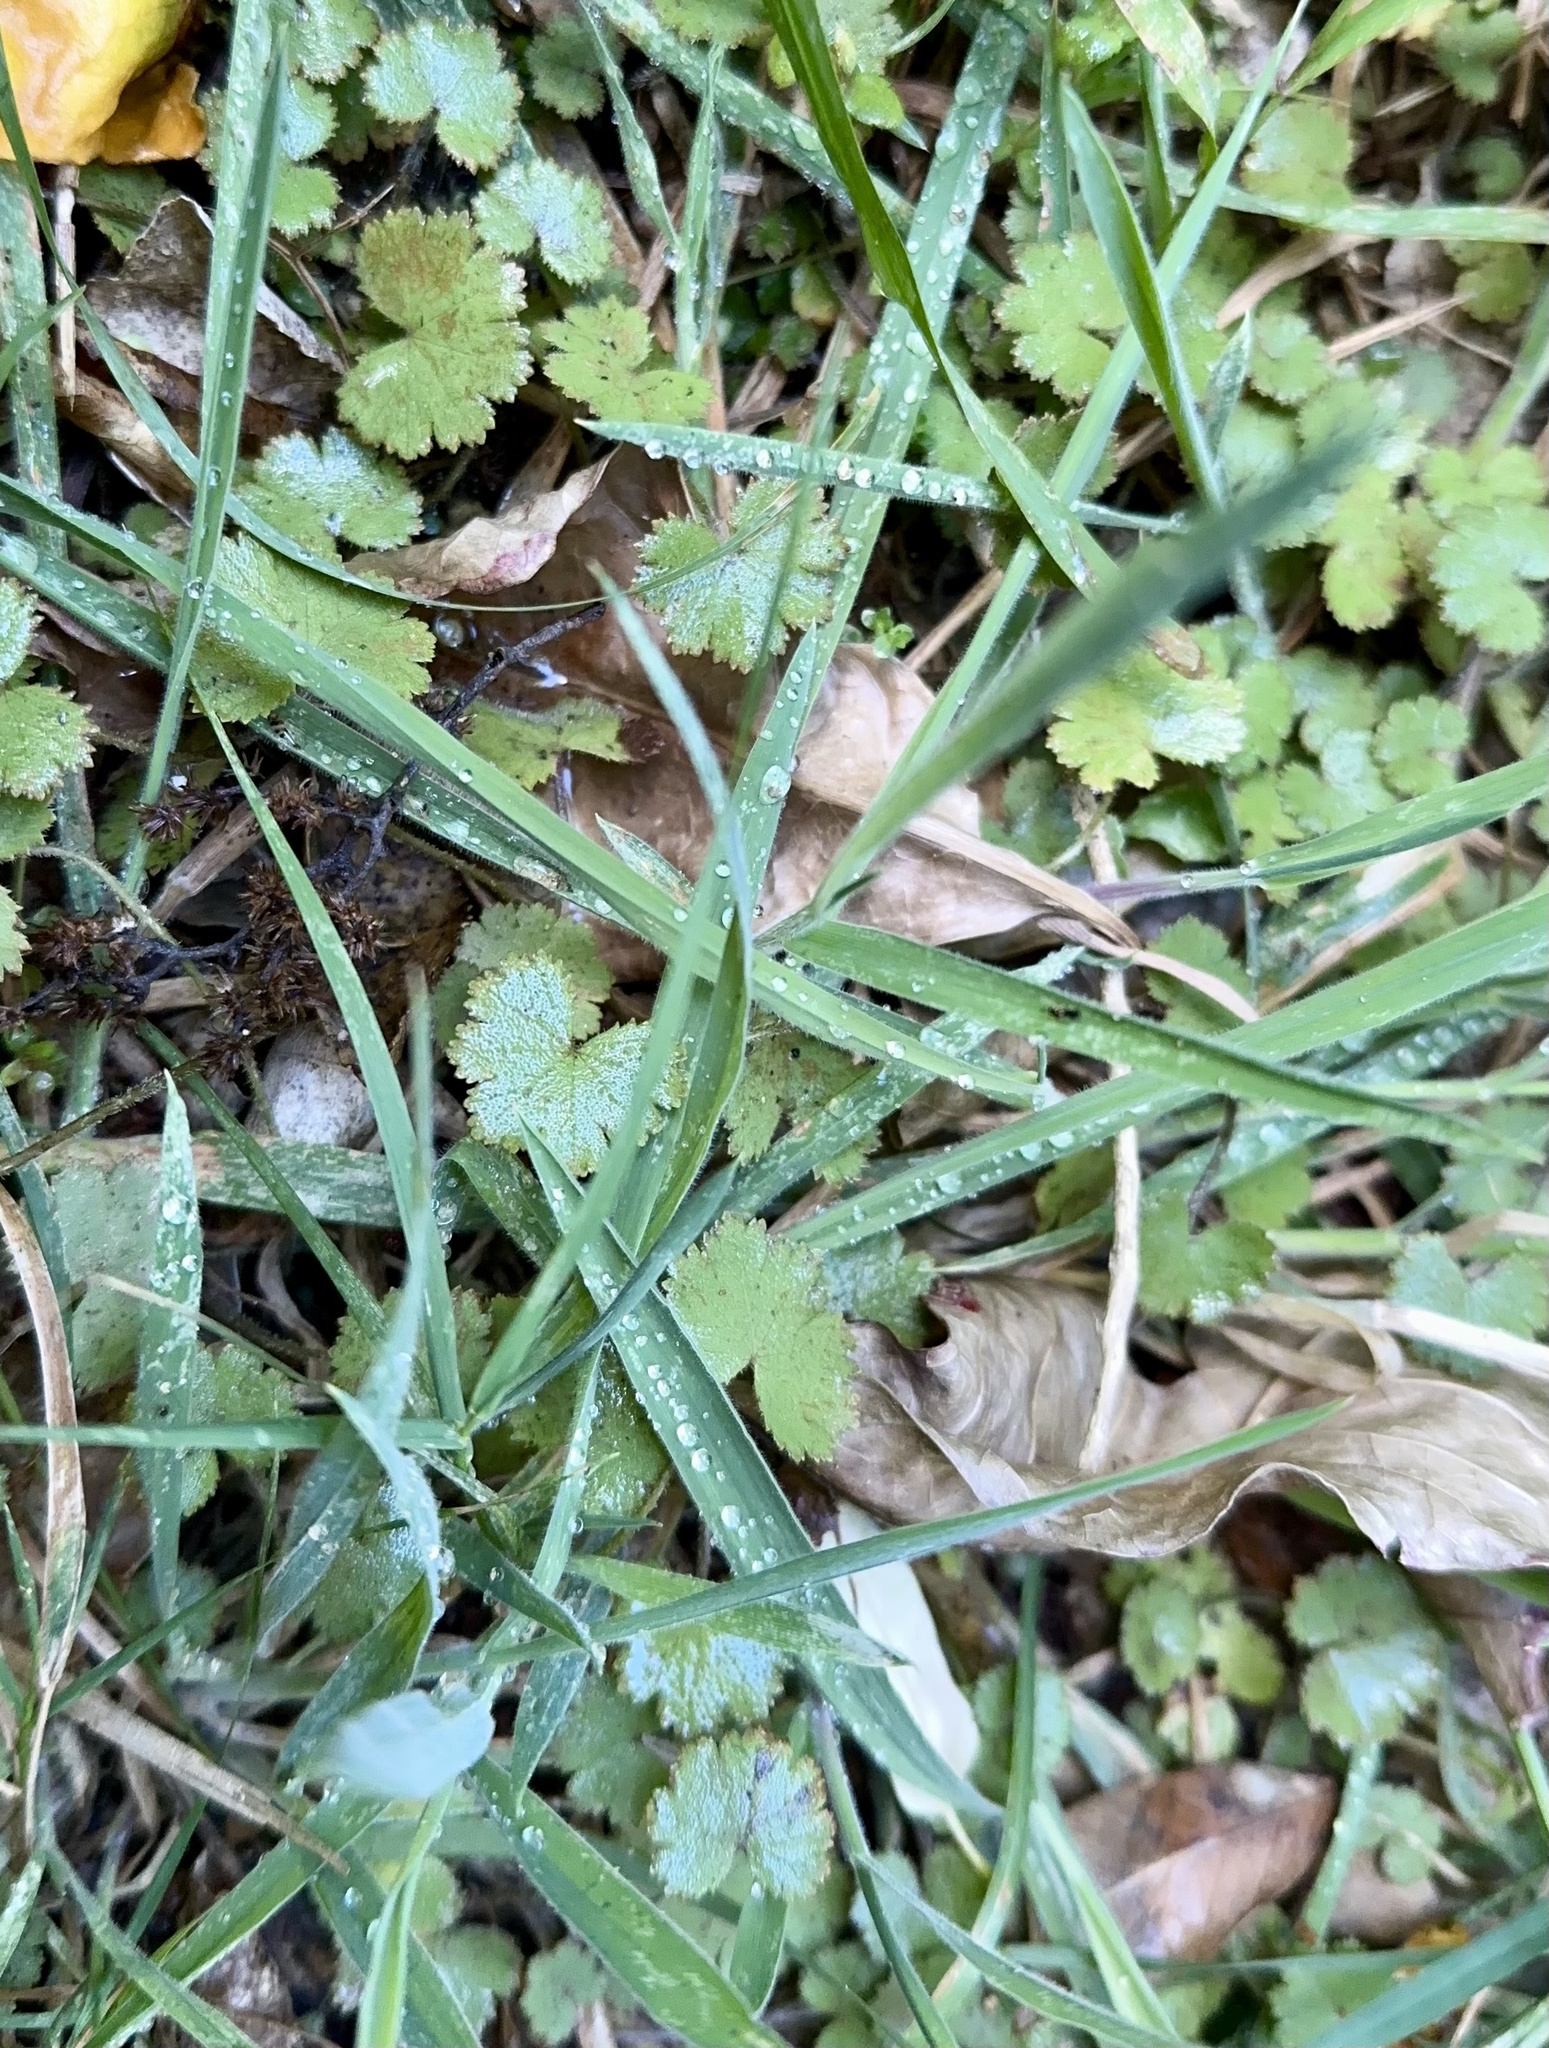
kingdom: Plantae
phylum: Tracheophyta
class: Magnoliopsida
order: Apiales
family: Araliaceae
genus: Hydrocotyle
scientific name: Hydrocotyle moschata
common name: Hairy pennywort
